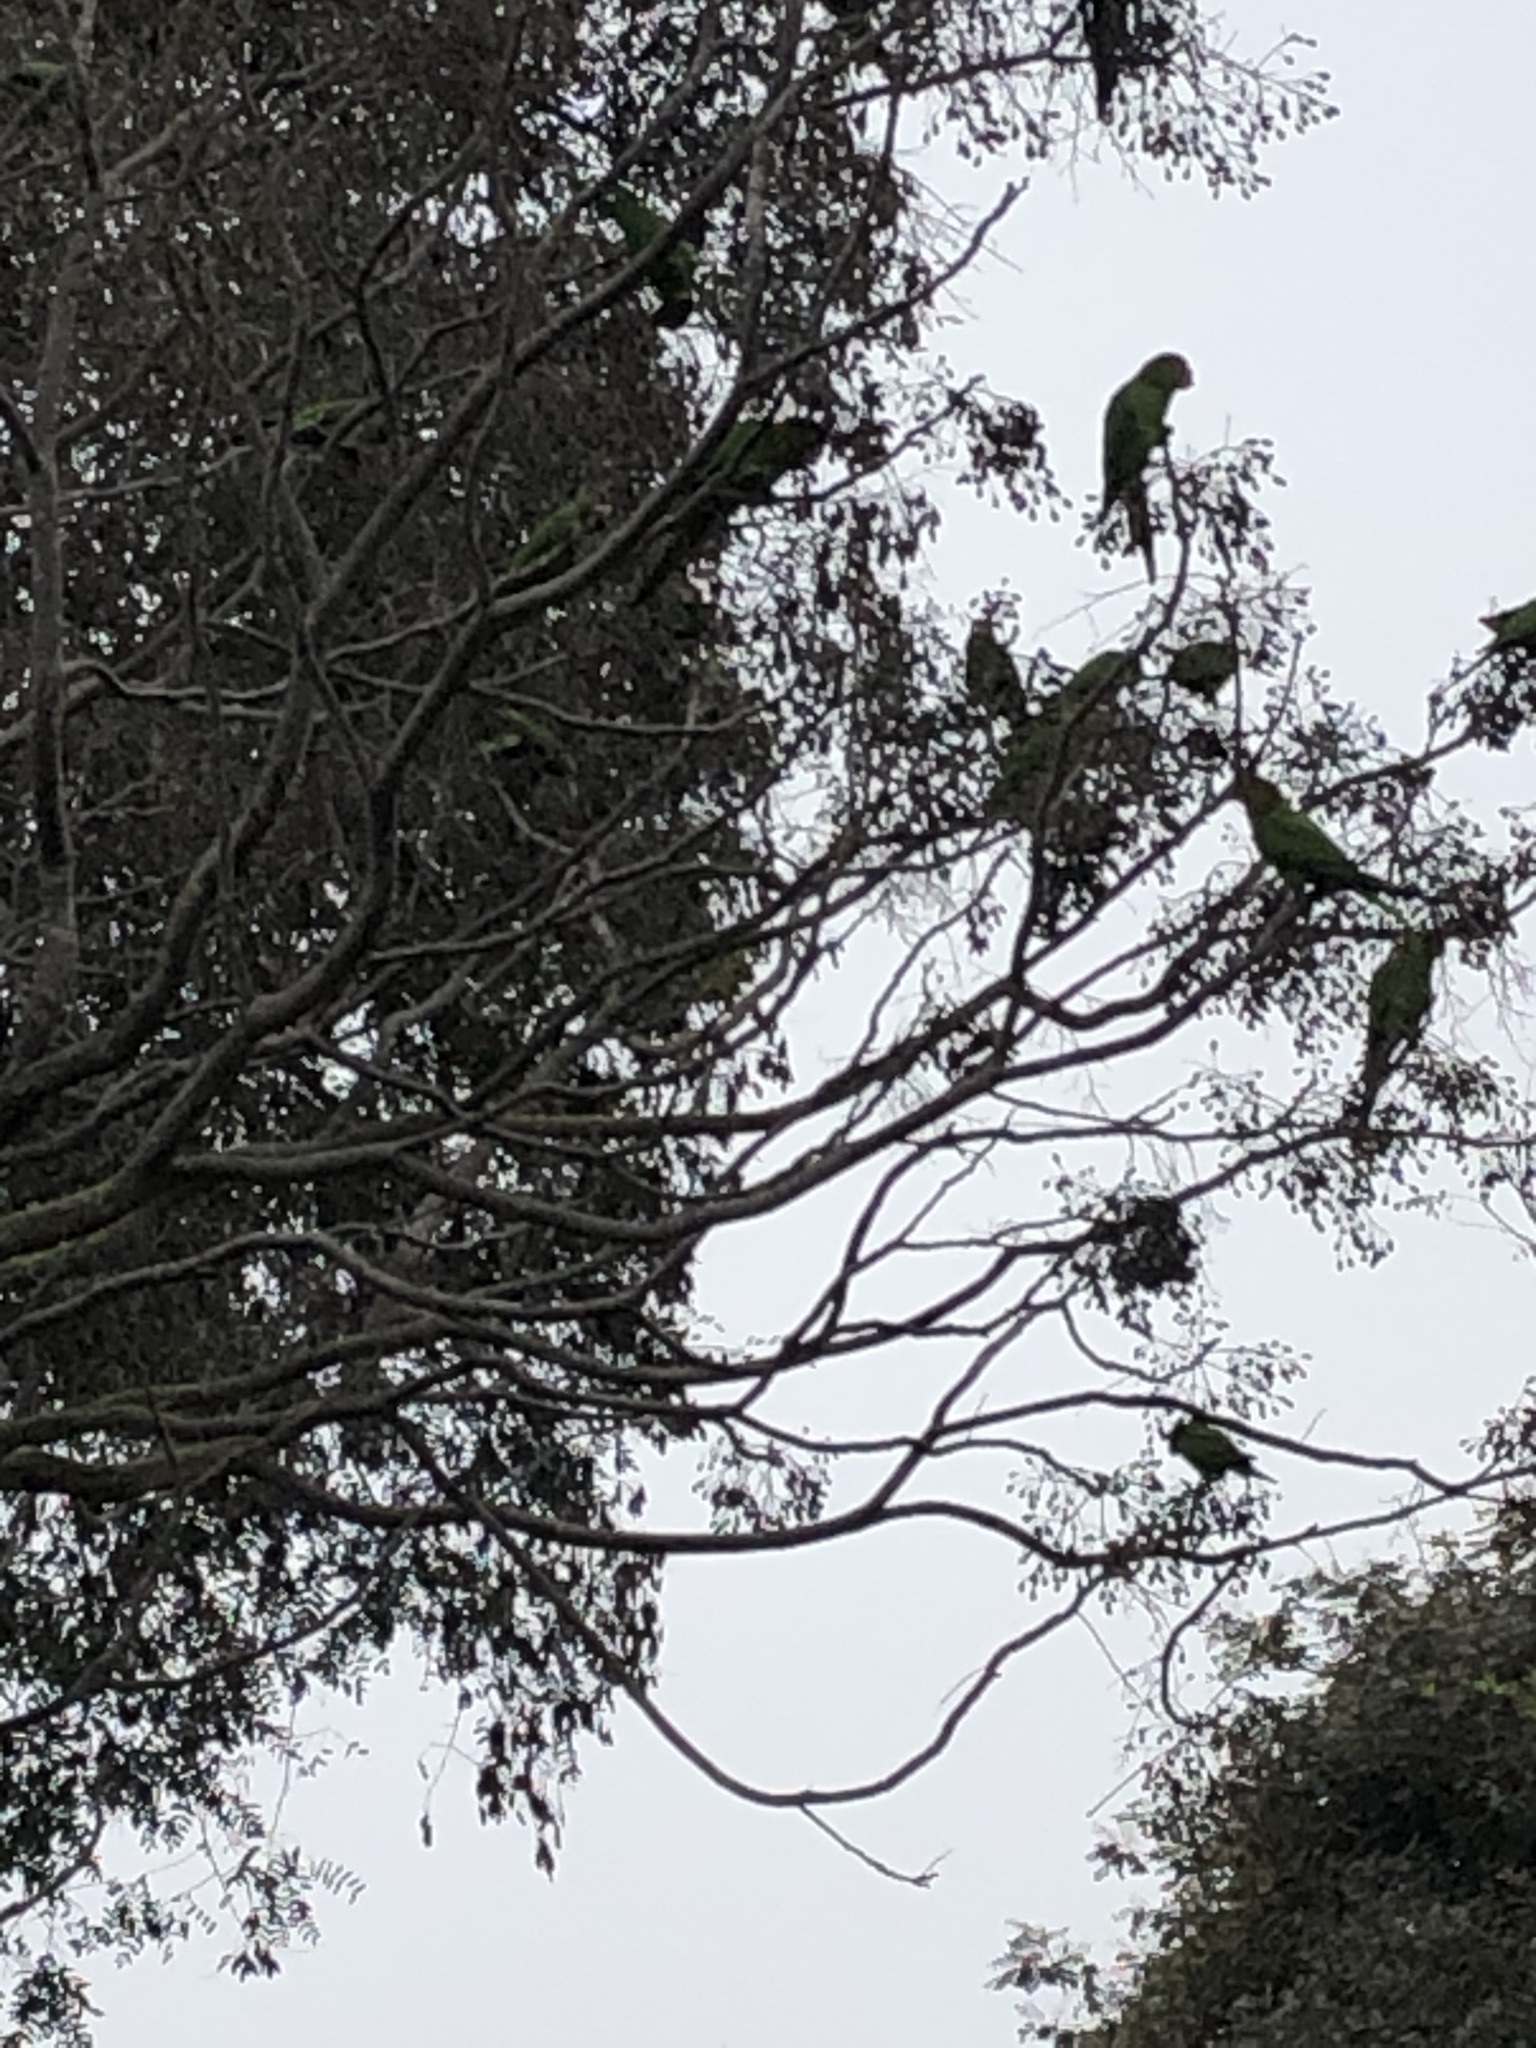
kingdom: Animalia
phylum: Chordata
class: Aves
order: Psittaciformes
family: Psittacidae
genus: Aratinga
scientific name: Aratinga wagleri
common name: Scarlet-fronted parakeet
